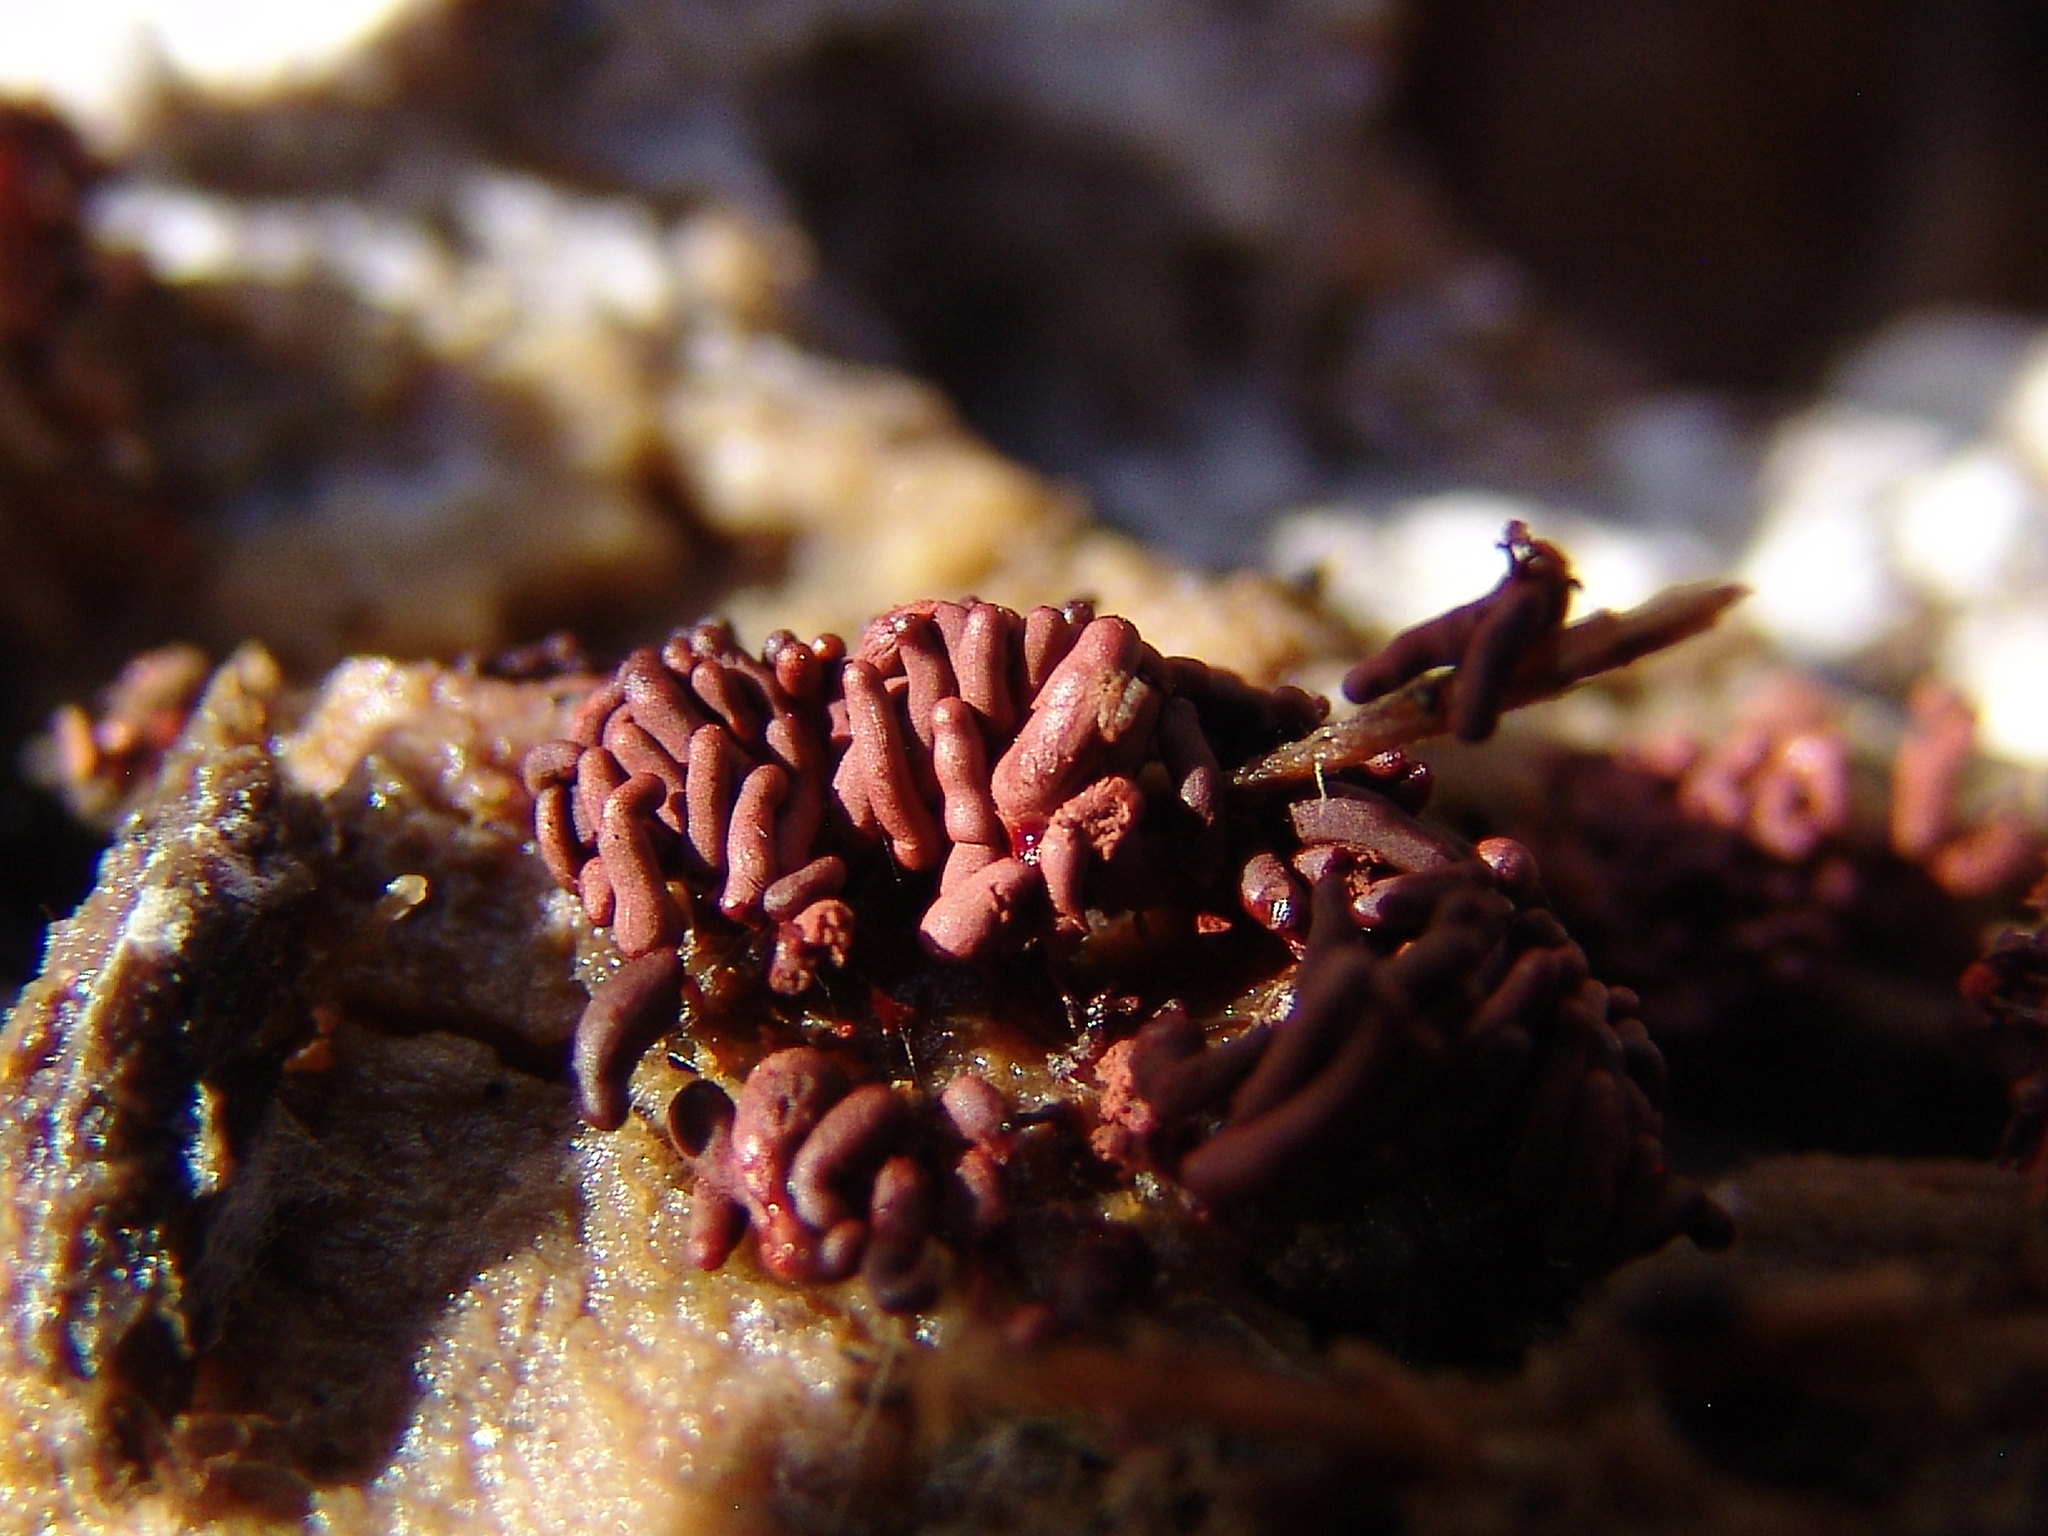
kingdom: Protozoa
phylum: Mycetozoa
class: Myxomycetes
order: Trichiales
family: Arcyriaceae
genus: Arcyria
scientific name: Arcyria stipata
